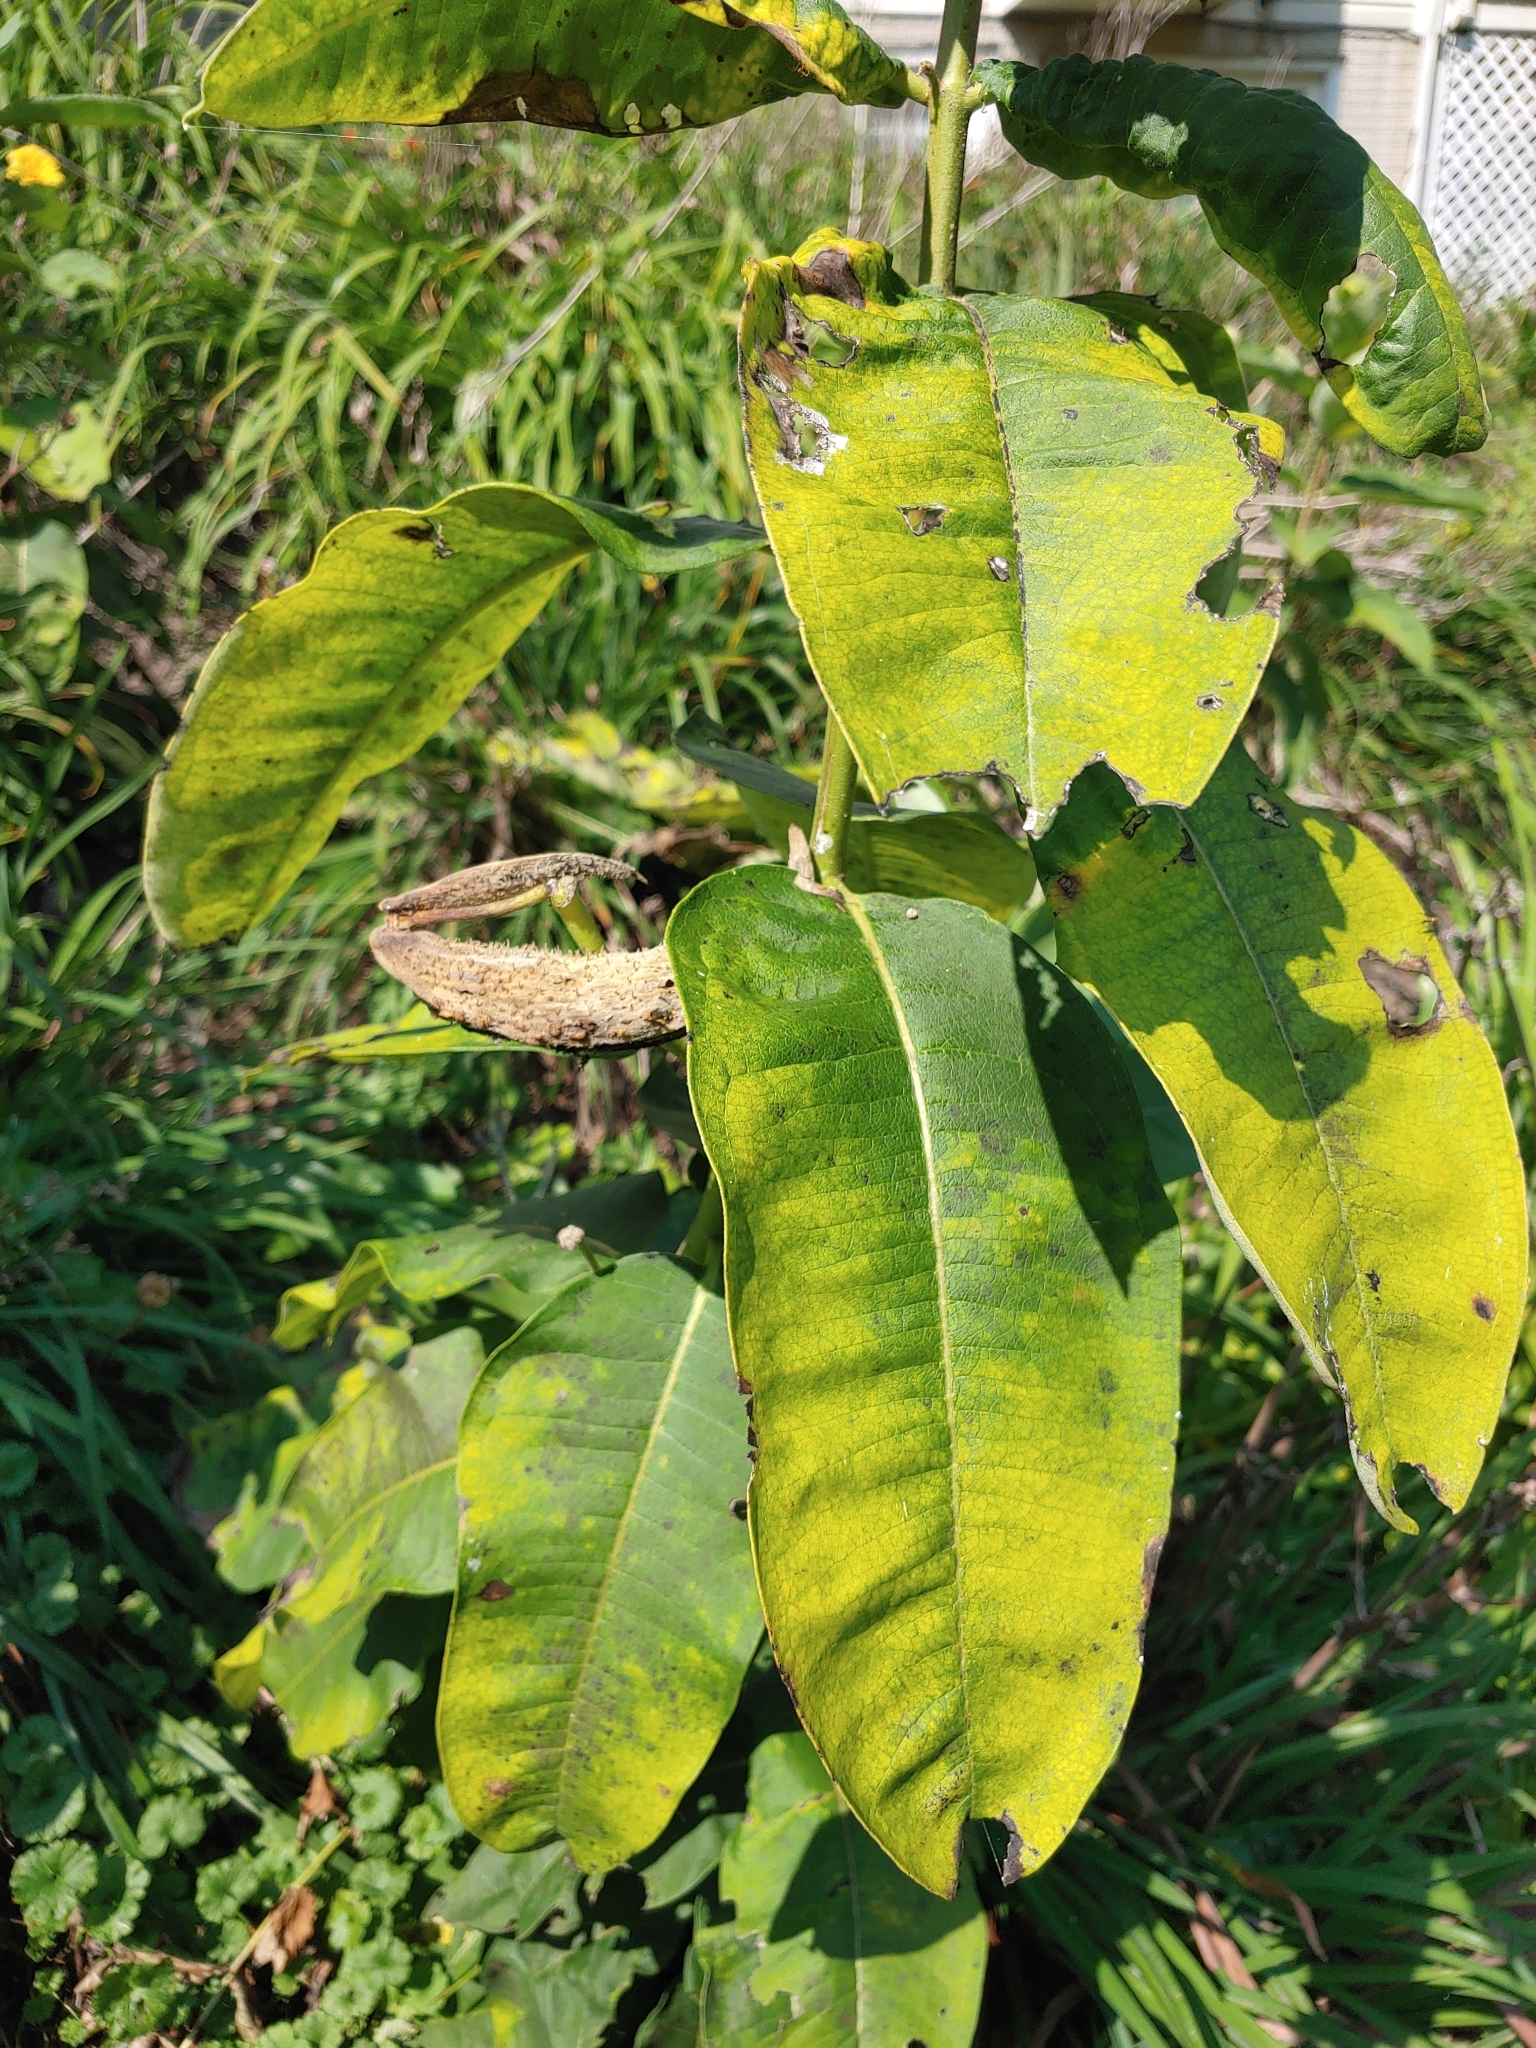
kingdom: Plantae
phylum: Tracheophyta
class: Magnoliopsida
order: Gentianales
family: Apocynaceae
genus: Asclepias
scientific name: Asclepias syriaca
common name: Common milkweed
